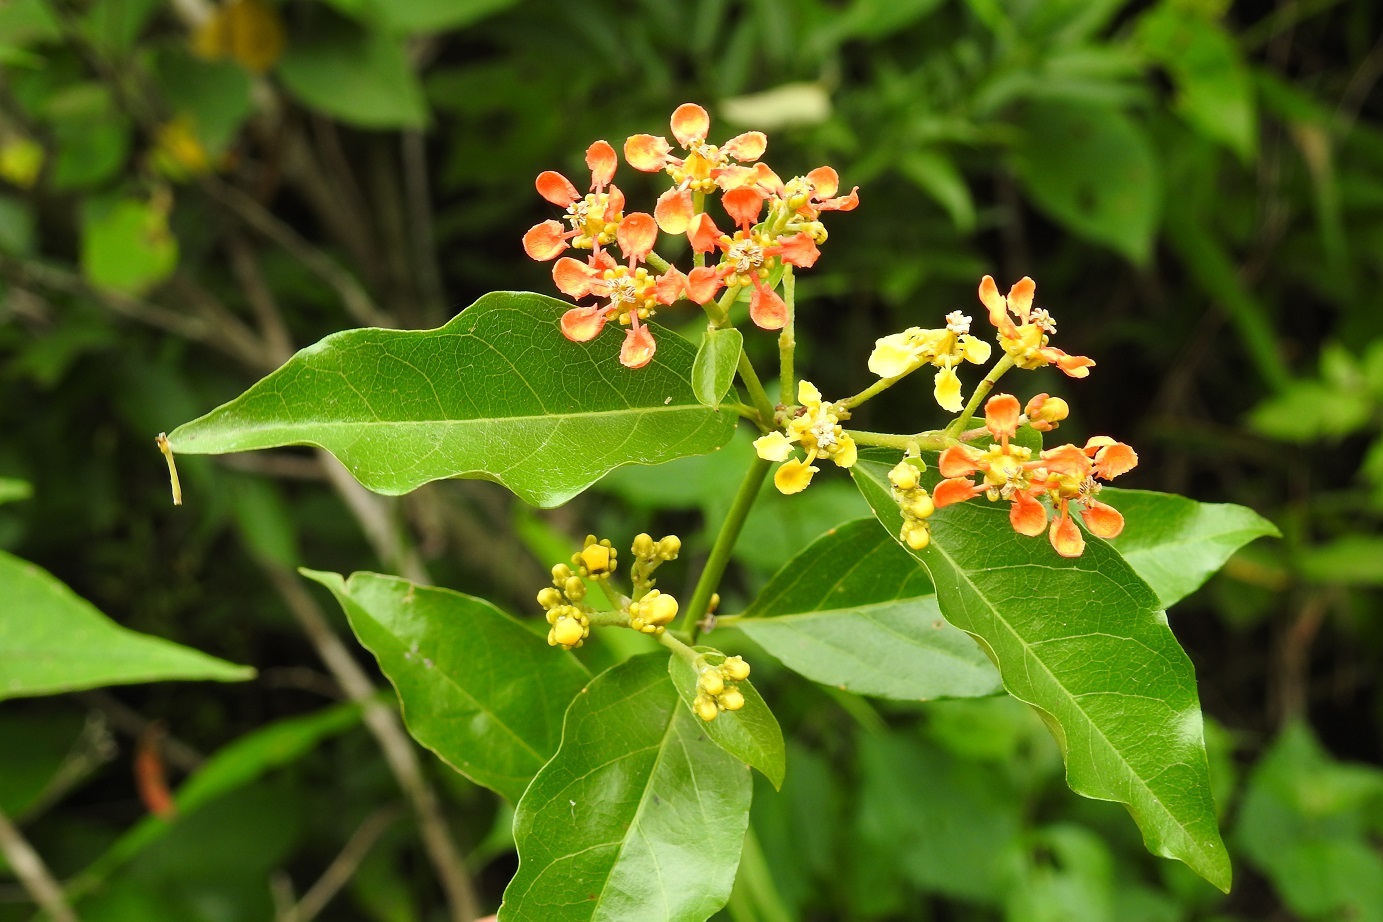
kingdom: Plantae
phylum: Tracheophyta
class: Magnoliopsida
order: Malpighiales
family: Malpighiaceae
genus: Tetrapterys
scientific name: Tetrapterys schiedeana
